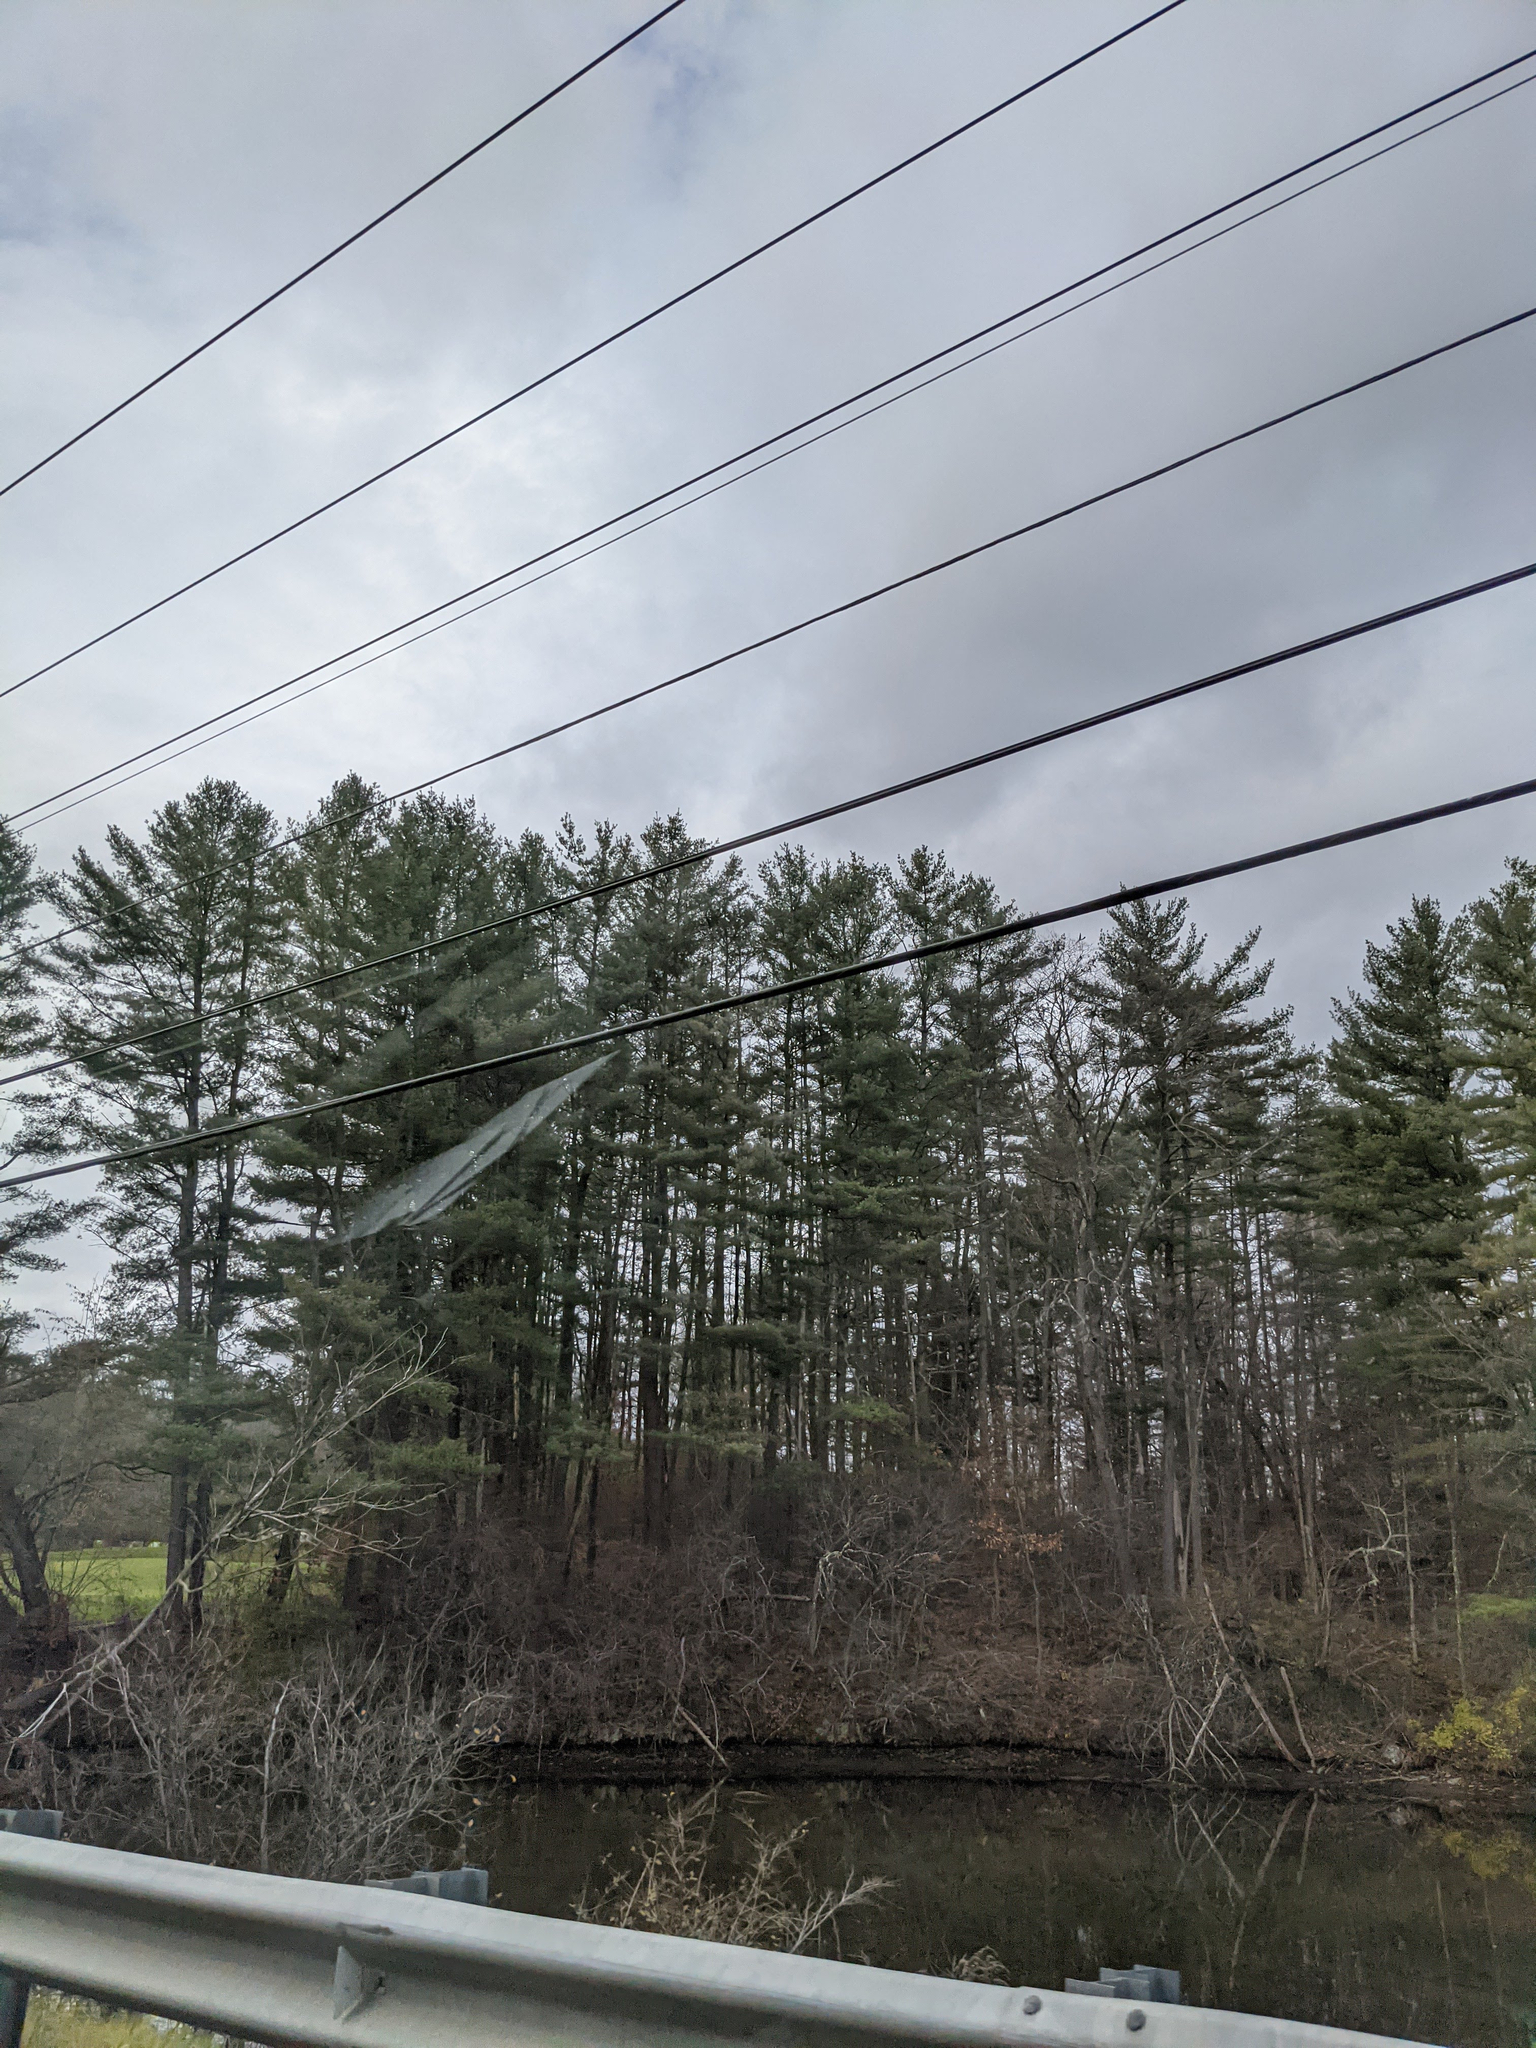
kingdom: Plantae
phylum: Tracheophyta
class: Pinopsida
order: Pinales
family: Pinaceae
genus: Pinus
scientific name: Pinus strobus
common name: Weymouth pine
